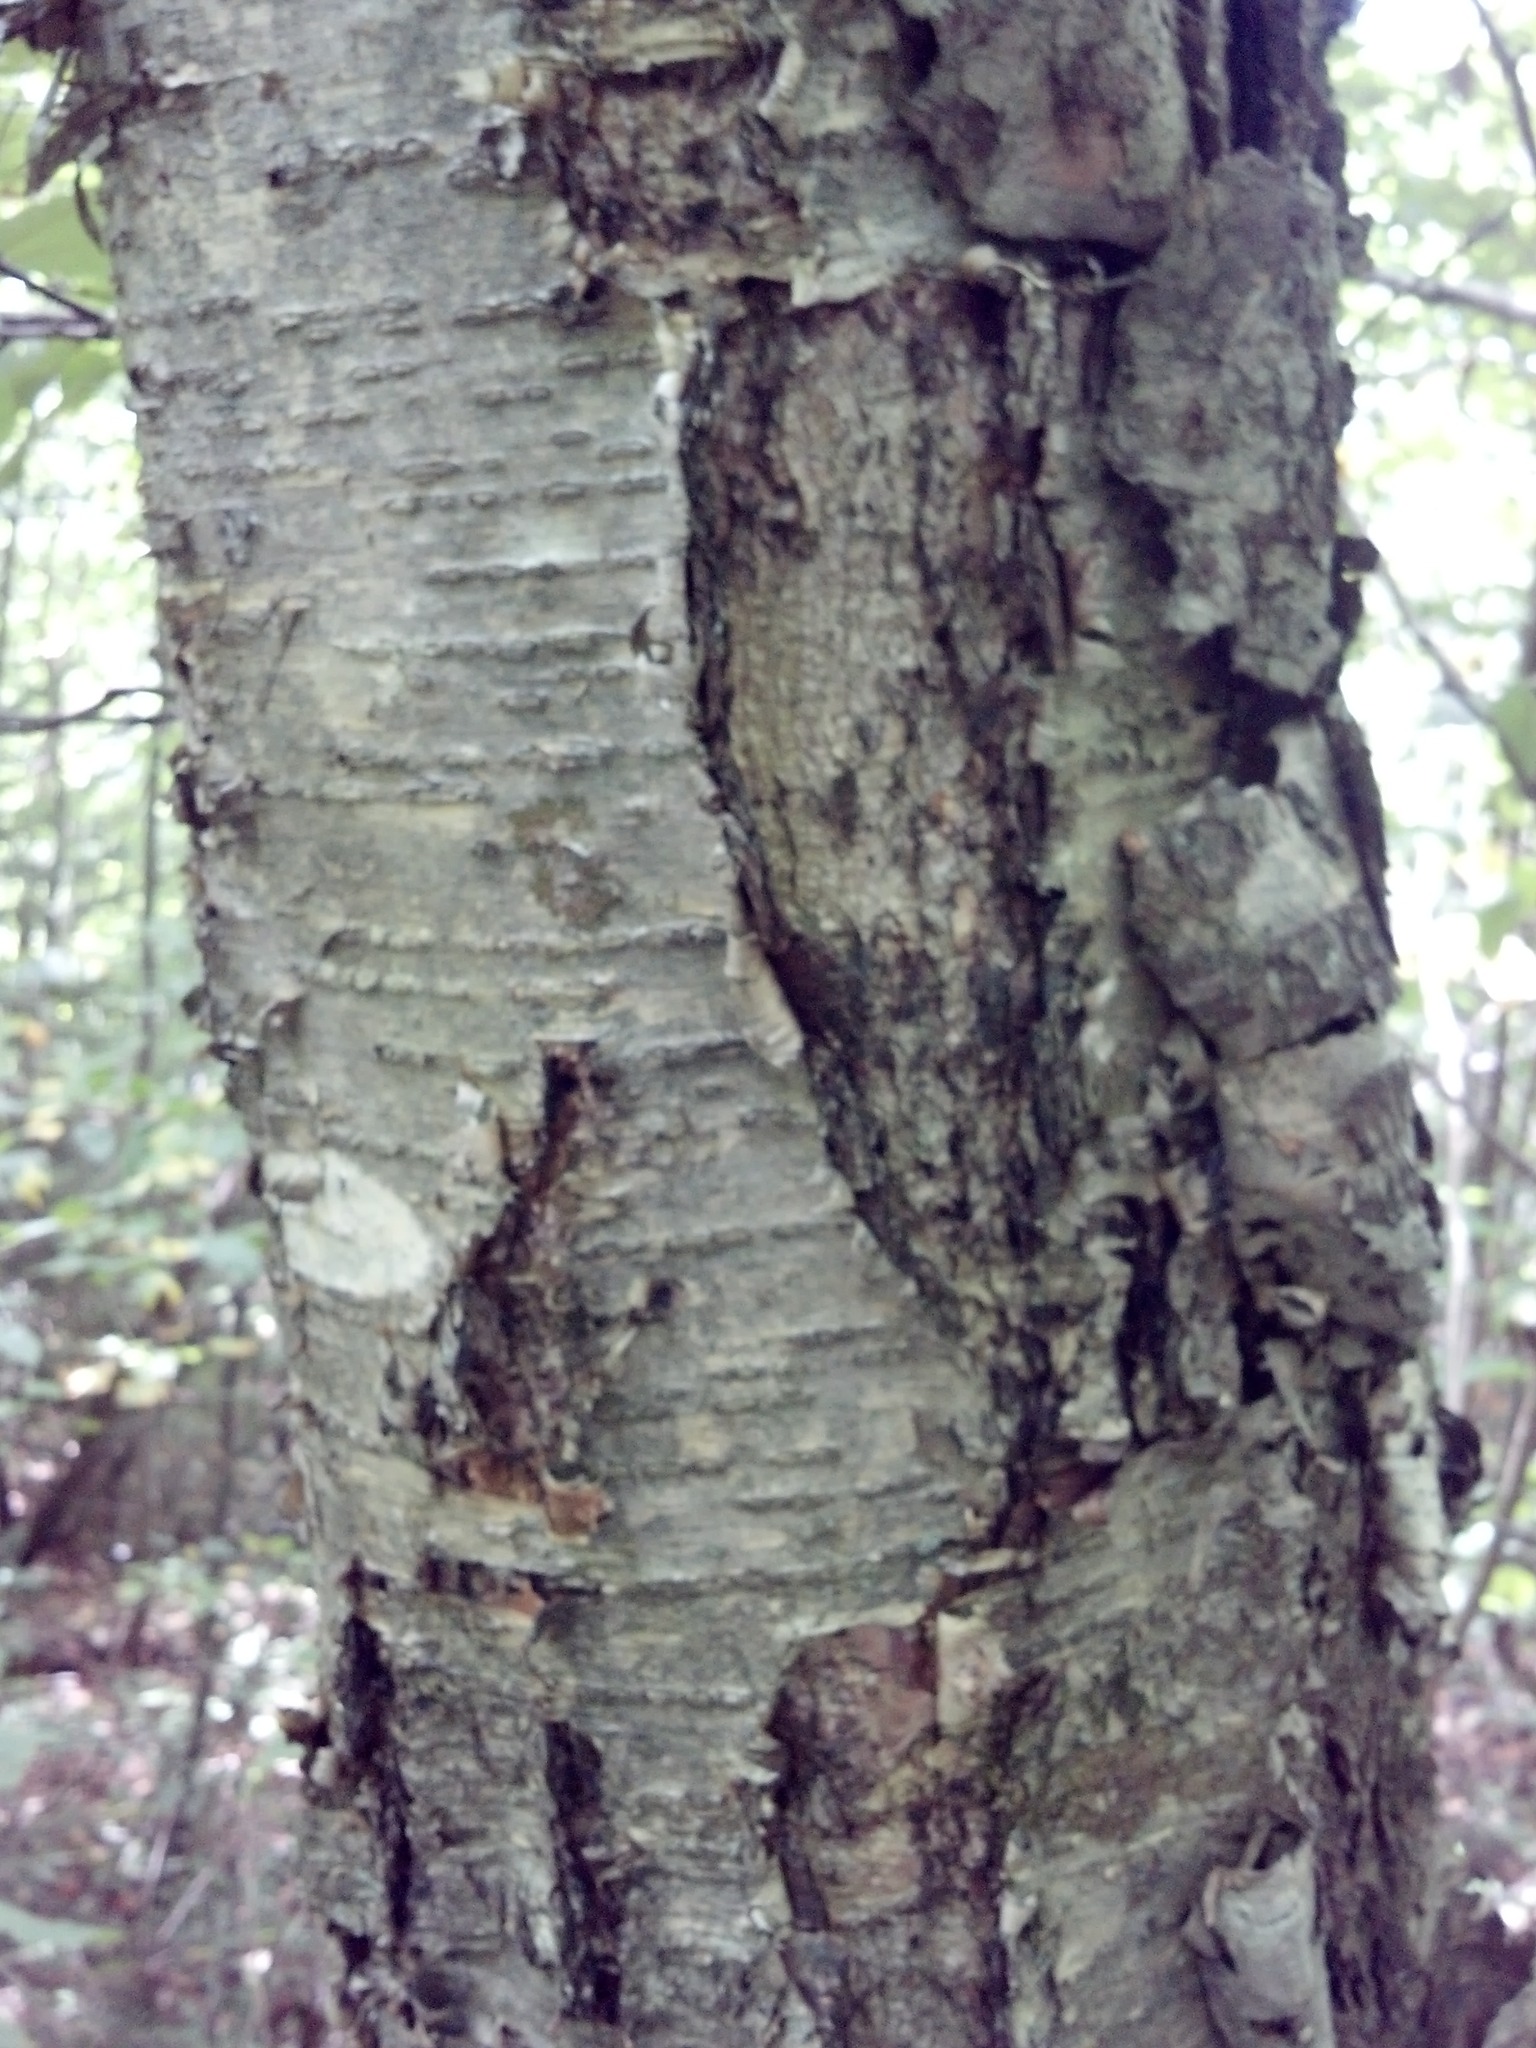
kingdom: Plantae
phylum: Tracheophyta
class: Magnoliopsida
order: Fagales
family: Betulaceae
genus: Betula
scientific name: Betula alleghaniensis
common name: Yellow birch
